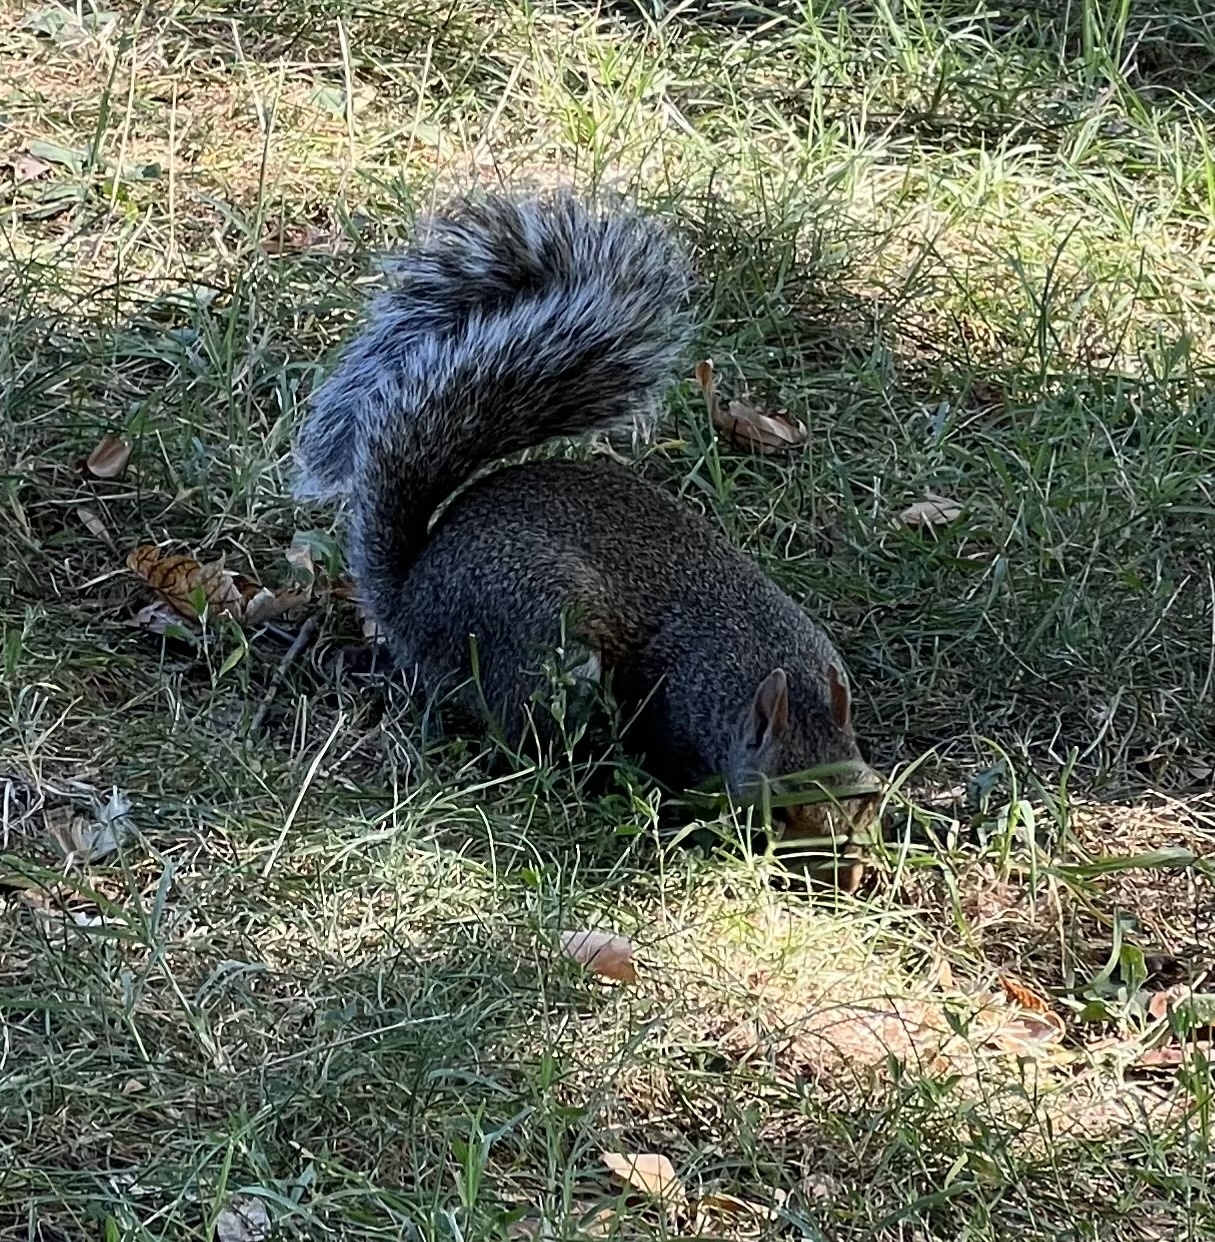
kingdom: Animalia
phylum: Chordata
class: Mammalia
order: Rodentia
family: Sciuridae
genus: Sciurus
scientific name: Sciurus carolinensis
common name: Eastern gray squirrel
